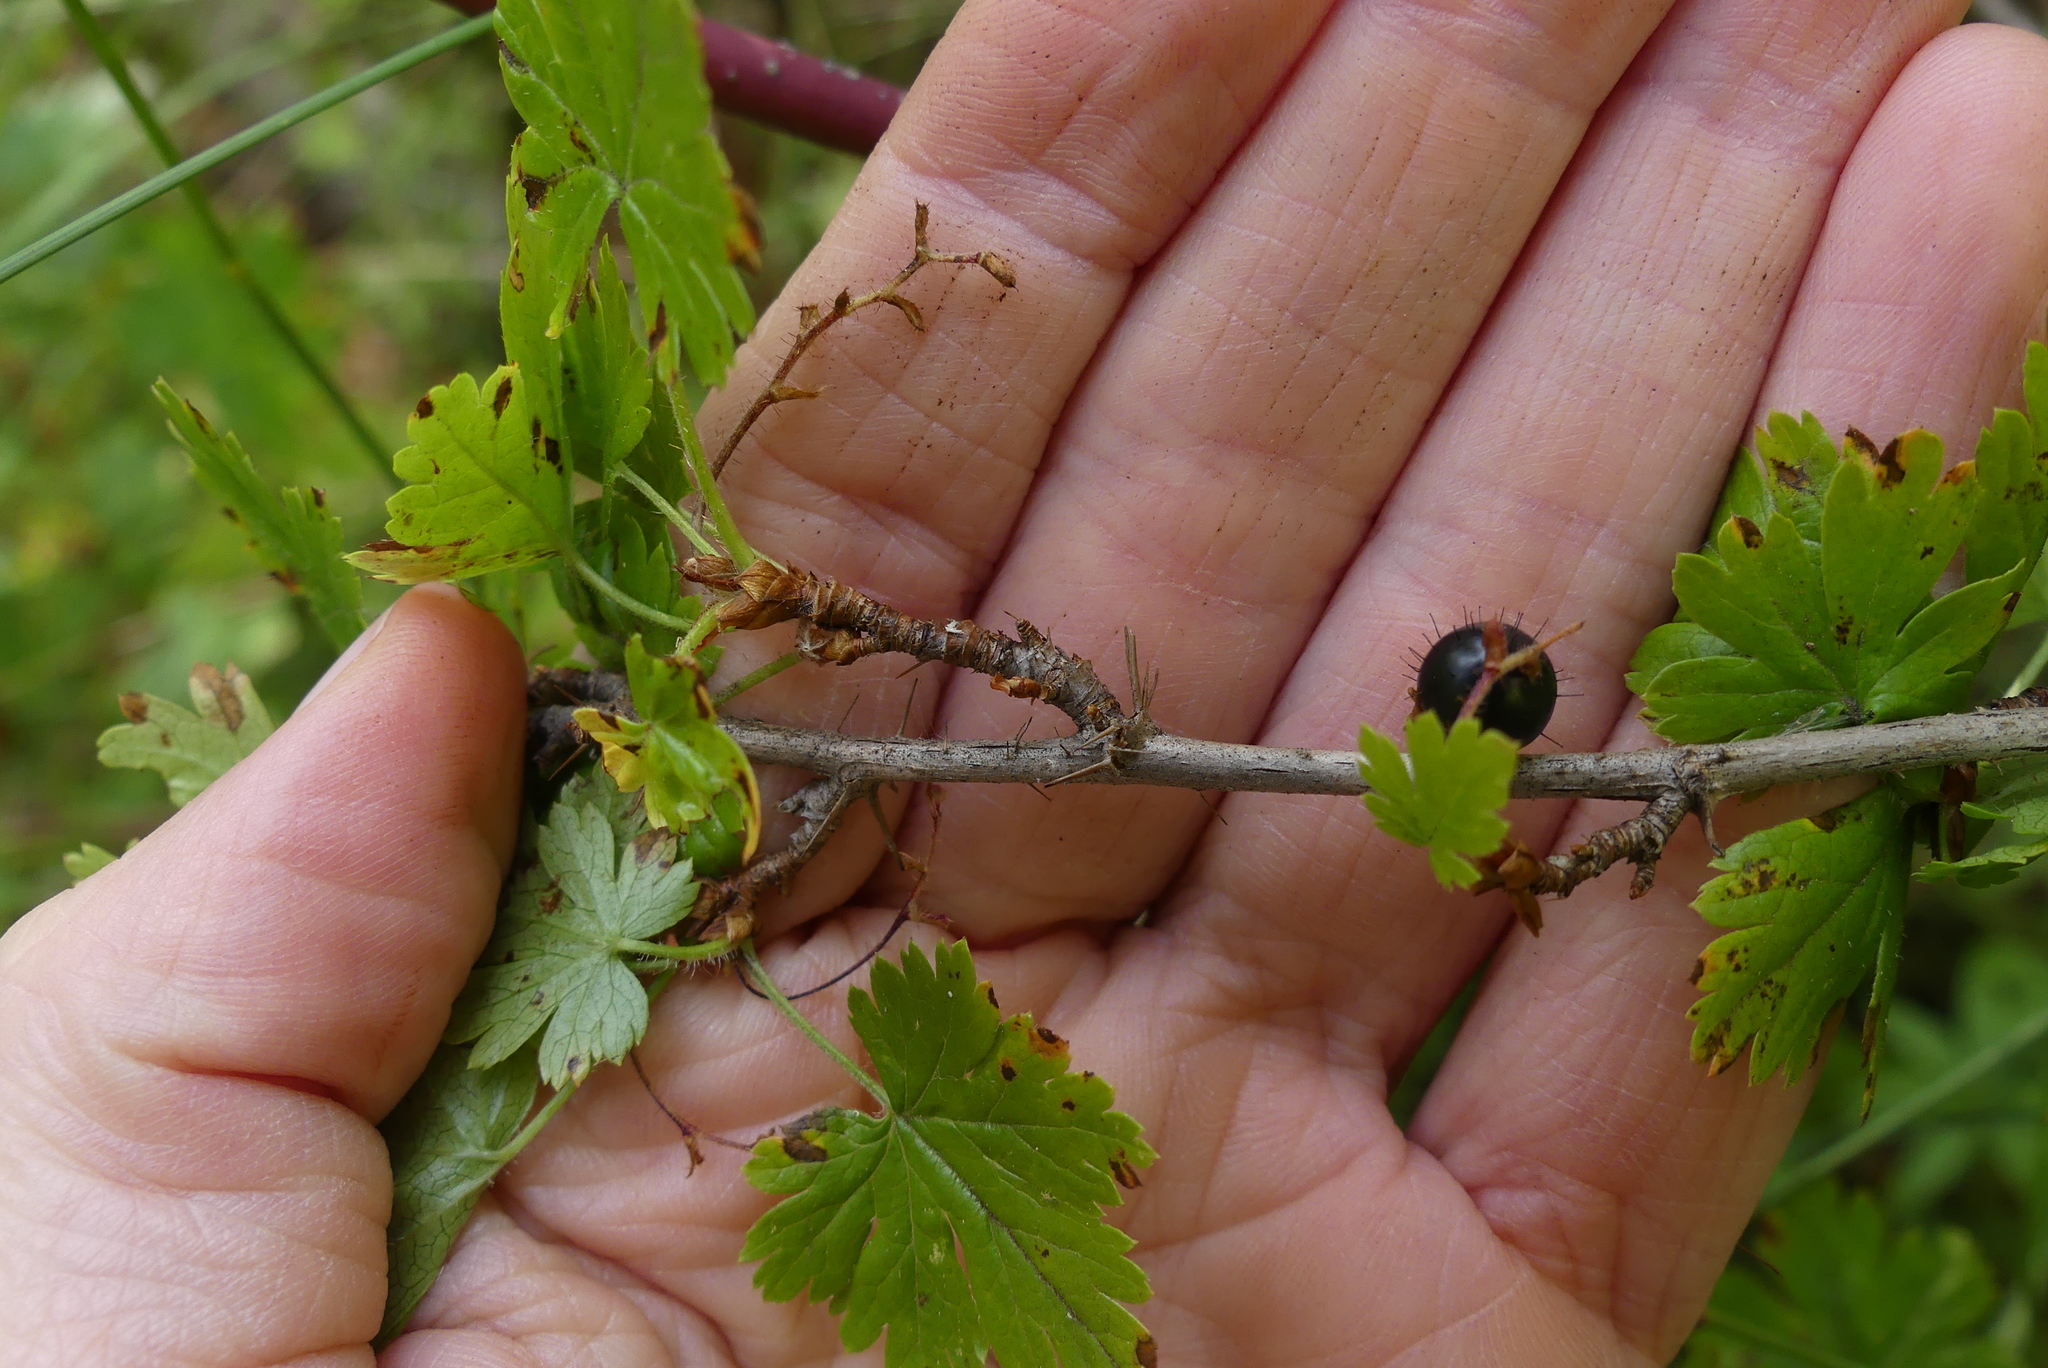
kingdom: Plantae
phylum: Tracheophyta
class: Magnoliopsida
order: Saxifragales
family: Grossulariaceae
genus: Ribes
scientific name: Ribes lacustre
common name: Black gooseberry
